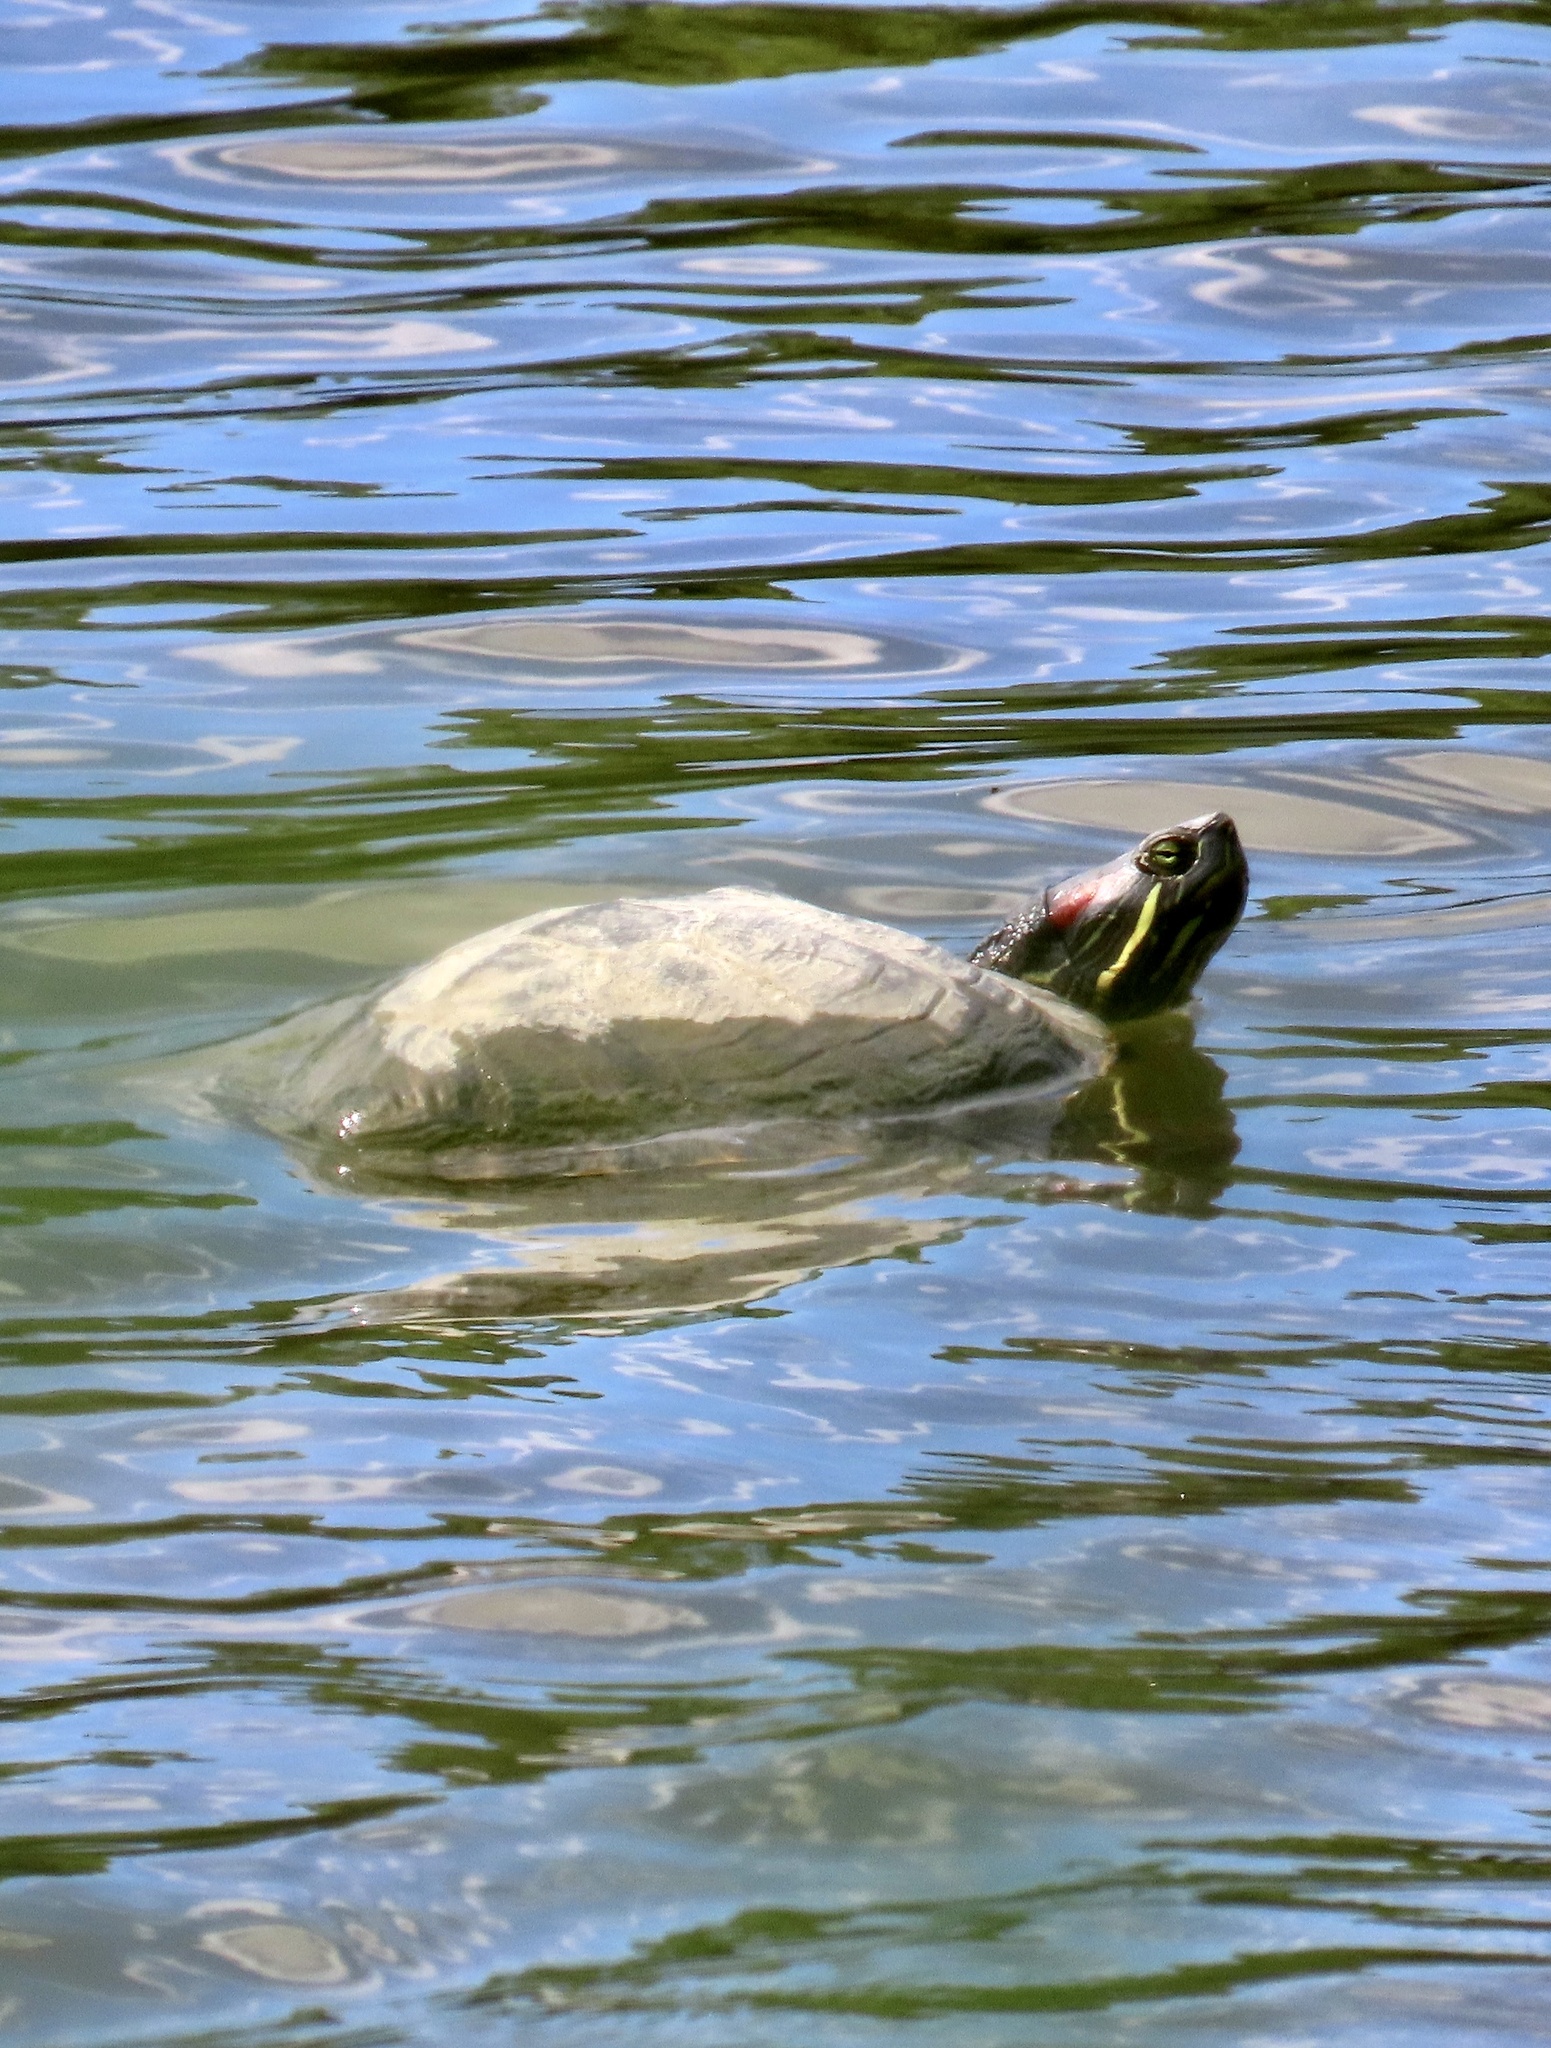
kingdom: Animalia
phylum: Chordata
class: Testudines
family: Emydidae
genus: Trachemys
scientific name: Trachemys scripta
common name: Slider
